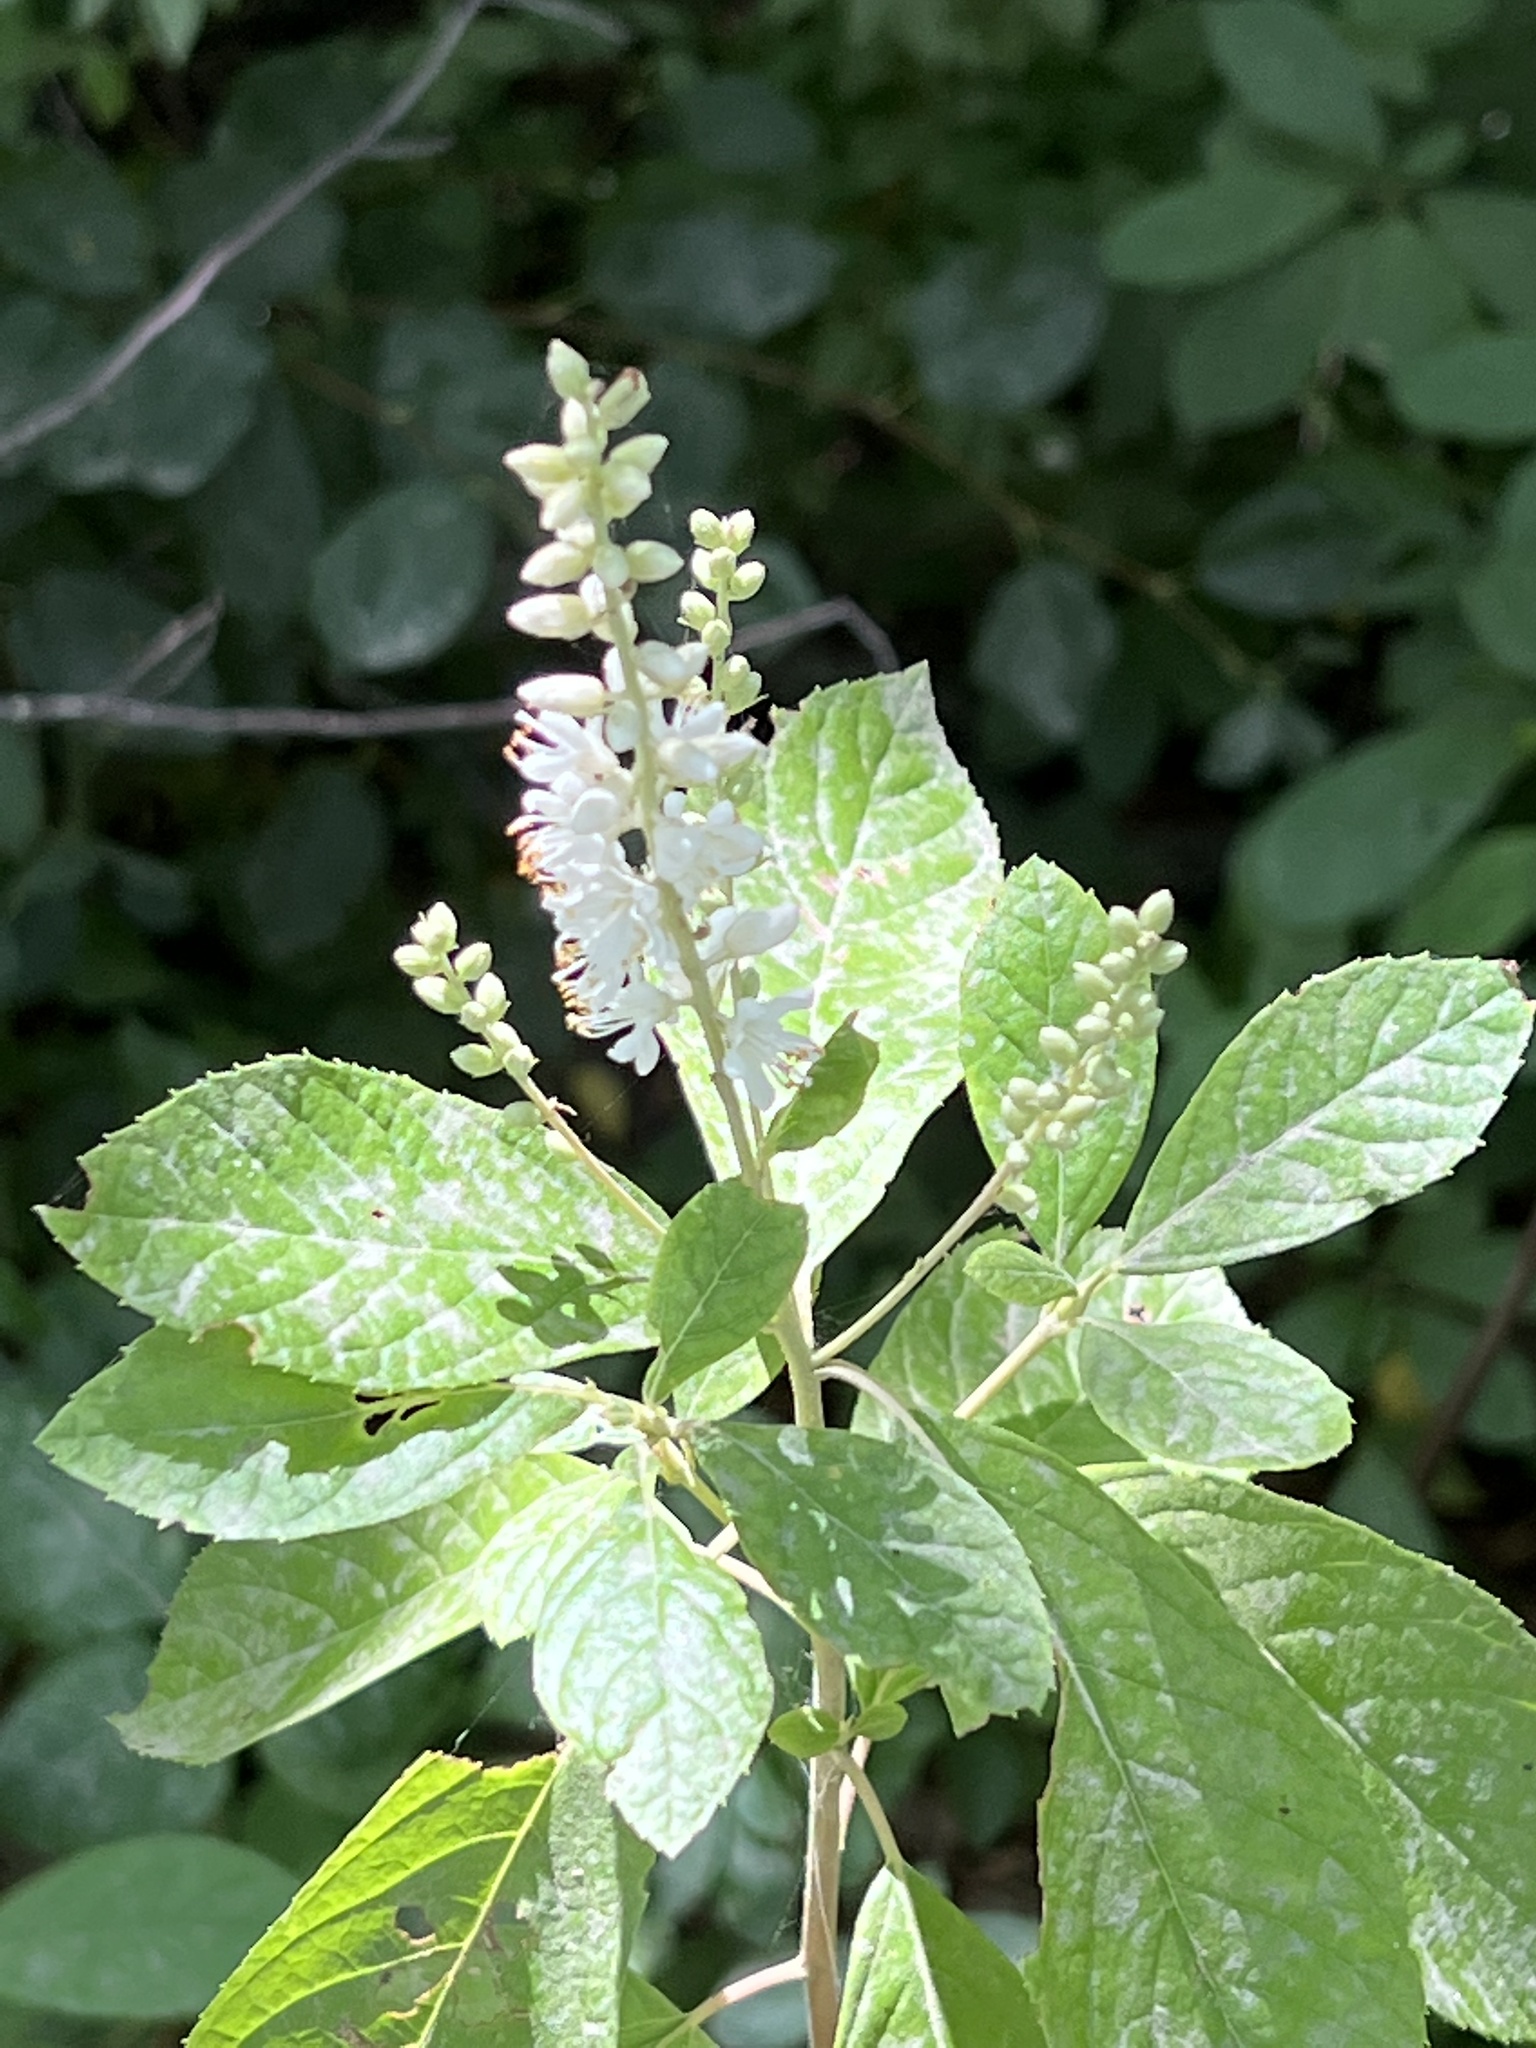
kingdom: Plantae
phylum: Tracheophyta
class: Magnoliopsida
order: Ericales
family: Clethraceae
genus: Clethra
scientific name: Clethra alnifolia
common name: Sweet pepperbush
